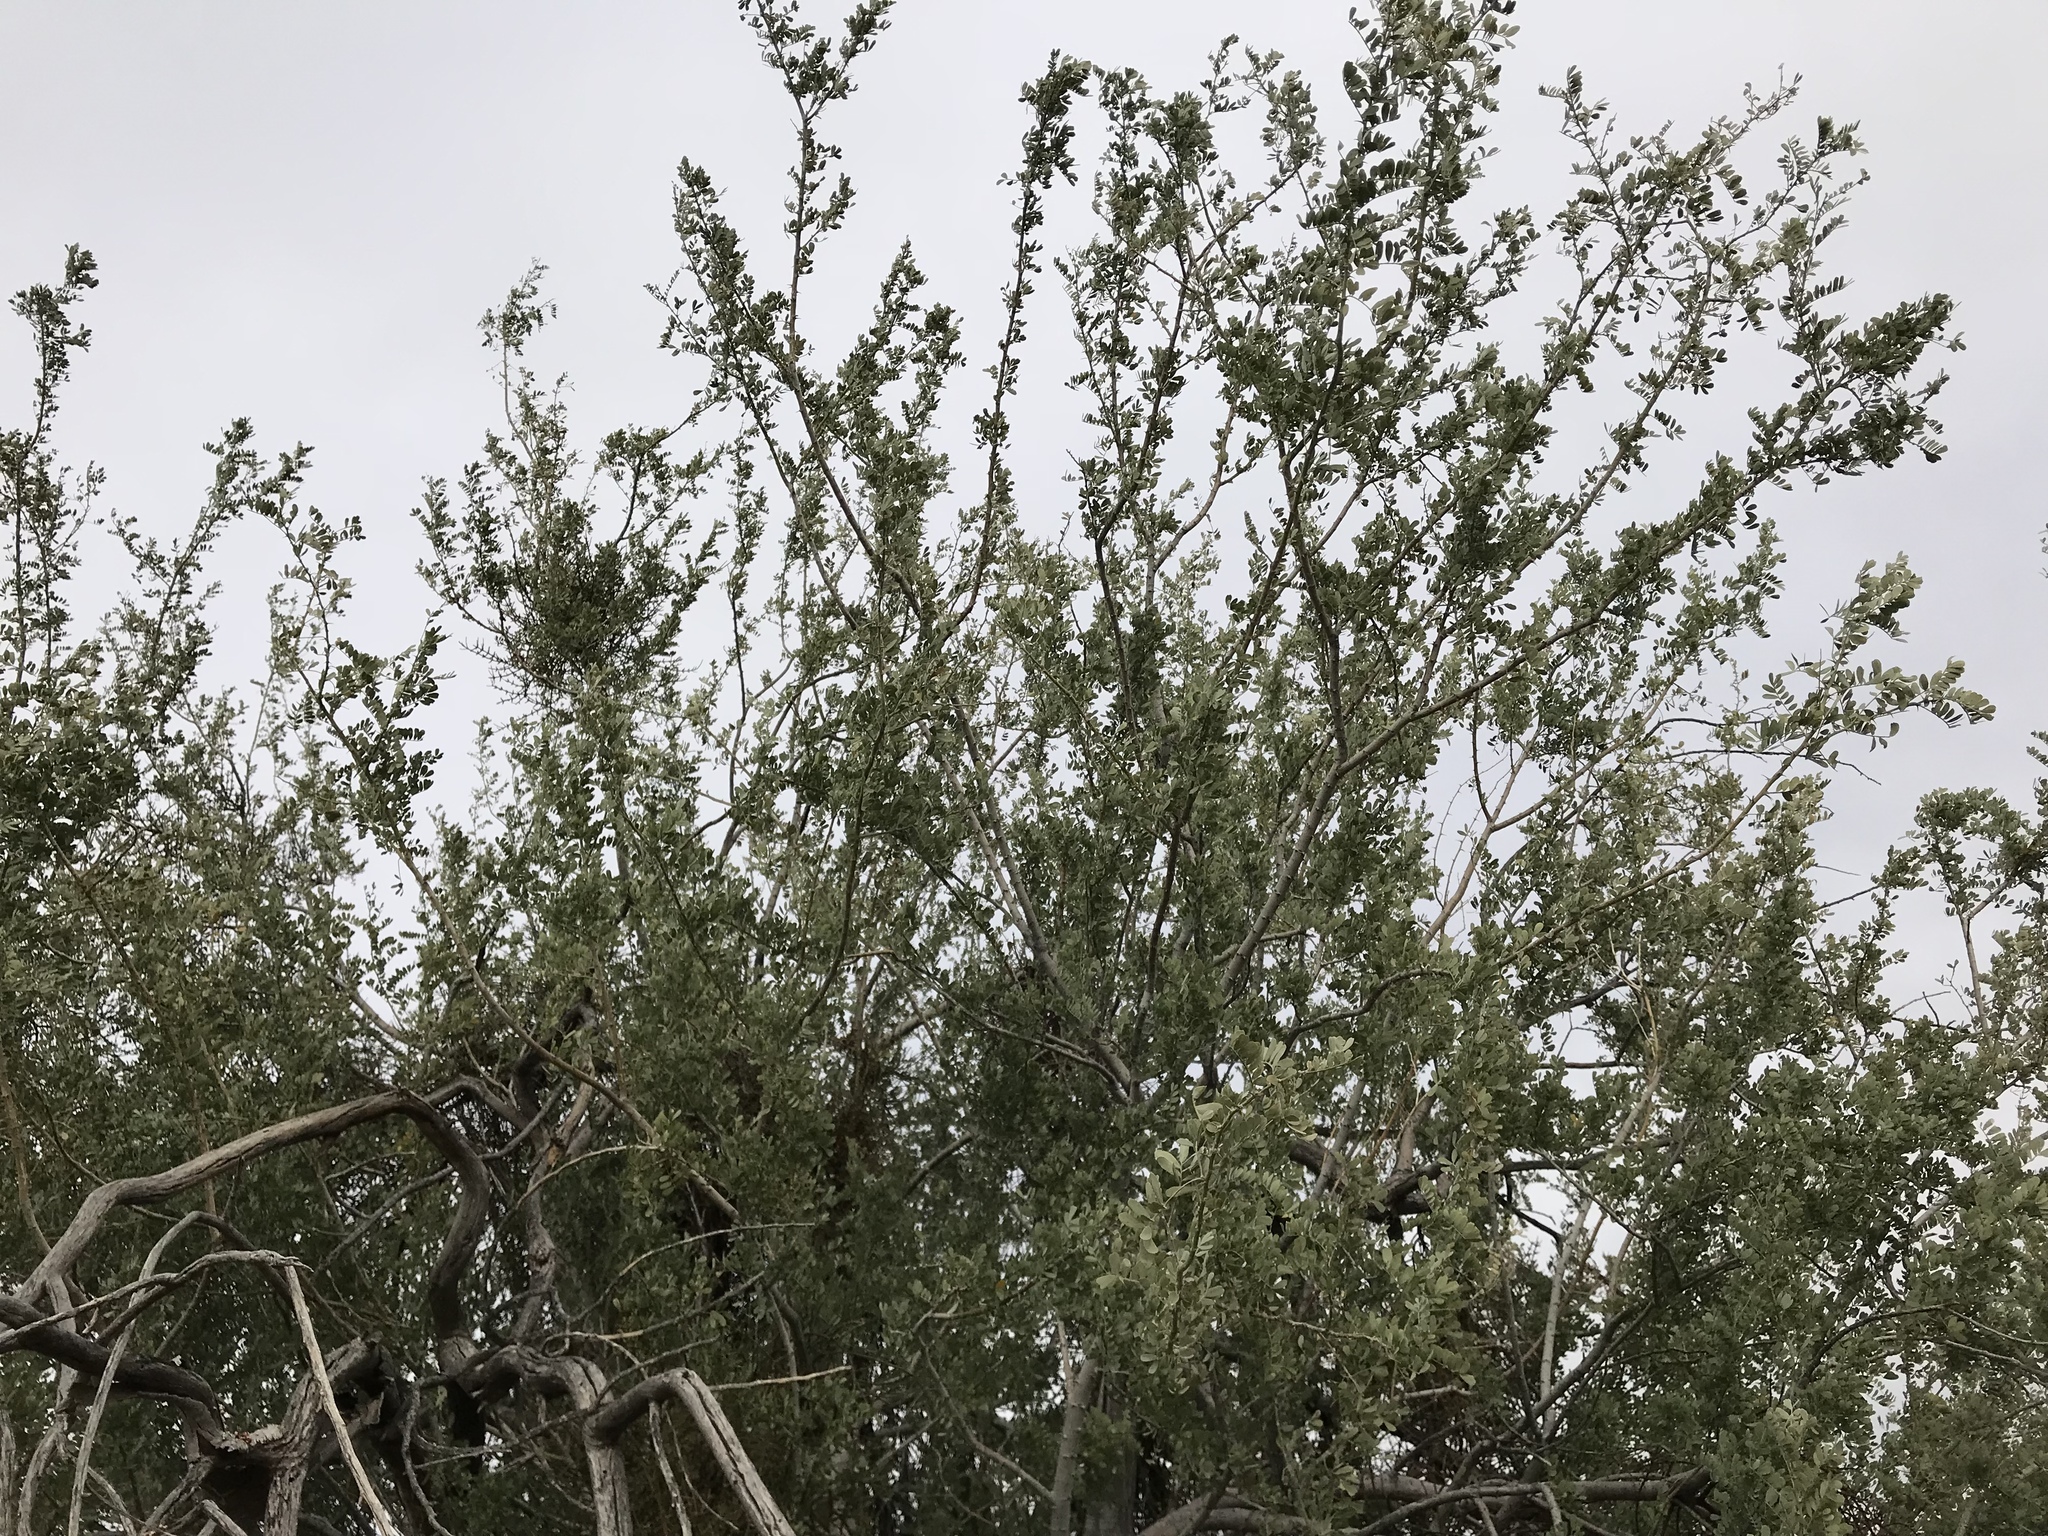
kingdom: Plantae
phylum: Tracheophyta
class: Magnoliopsida
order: Fabales
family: Fabaceae
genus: Olneya
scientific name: Olneya tesota
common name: Desert ironwood
